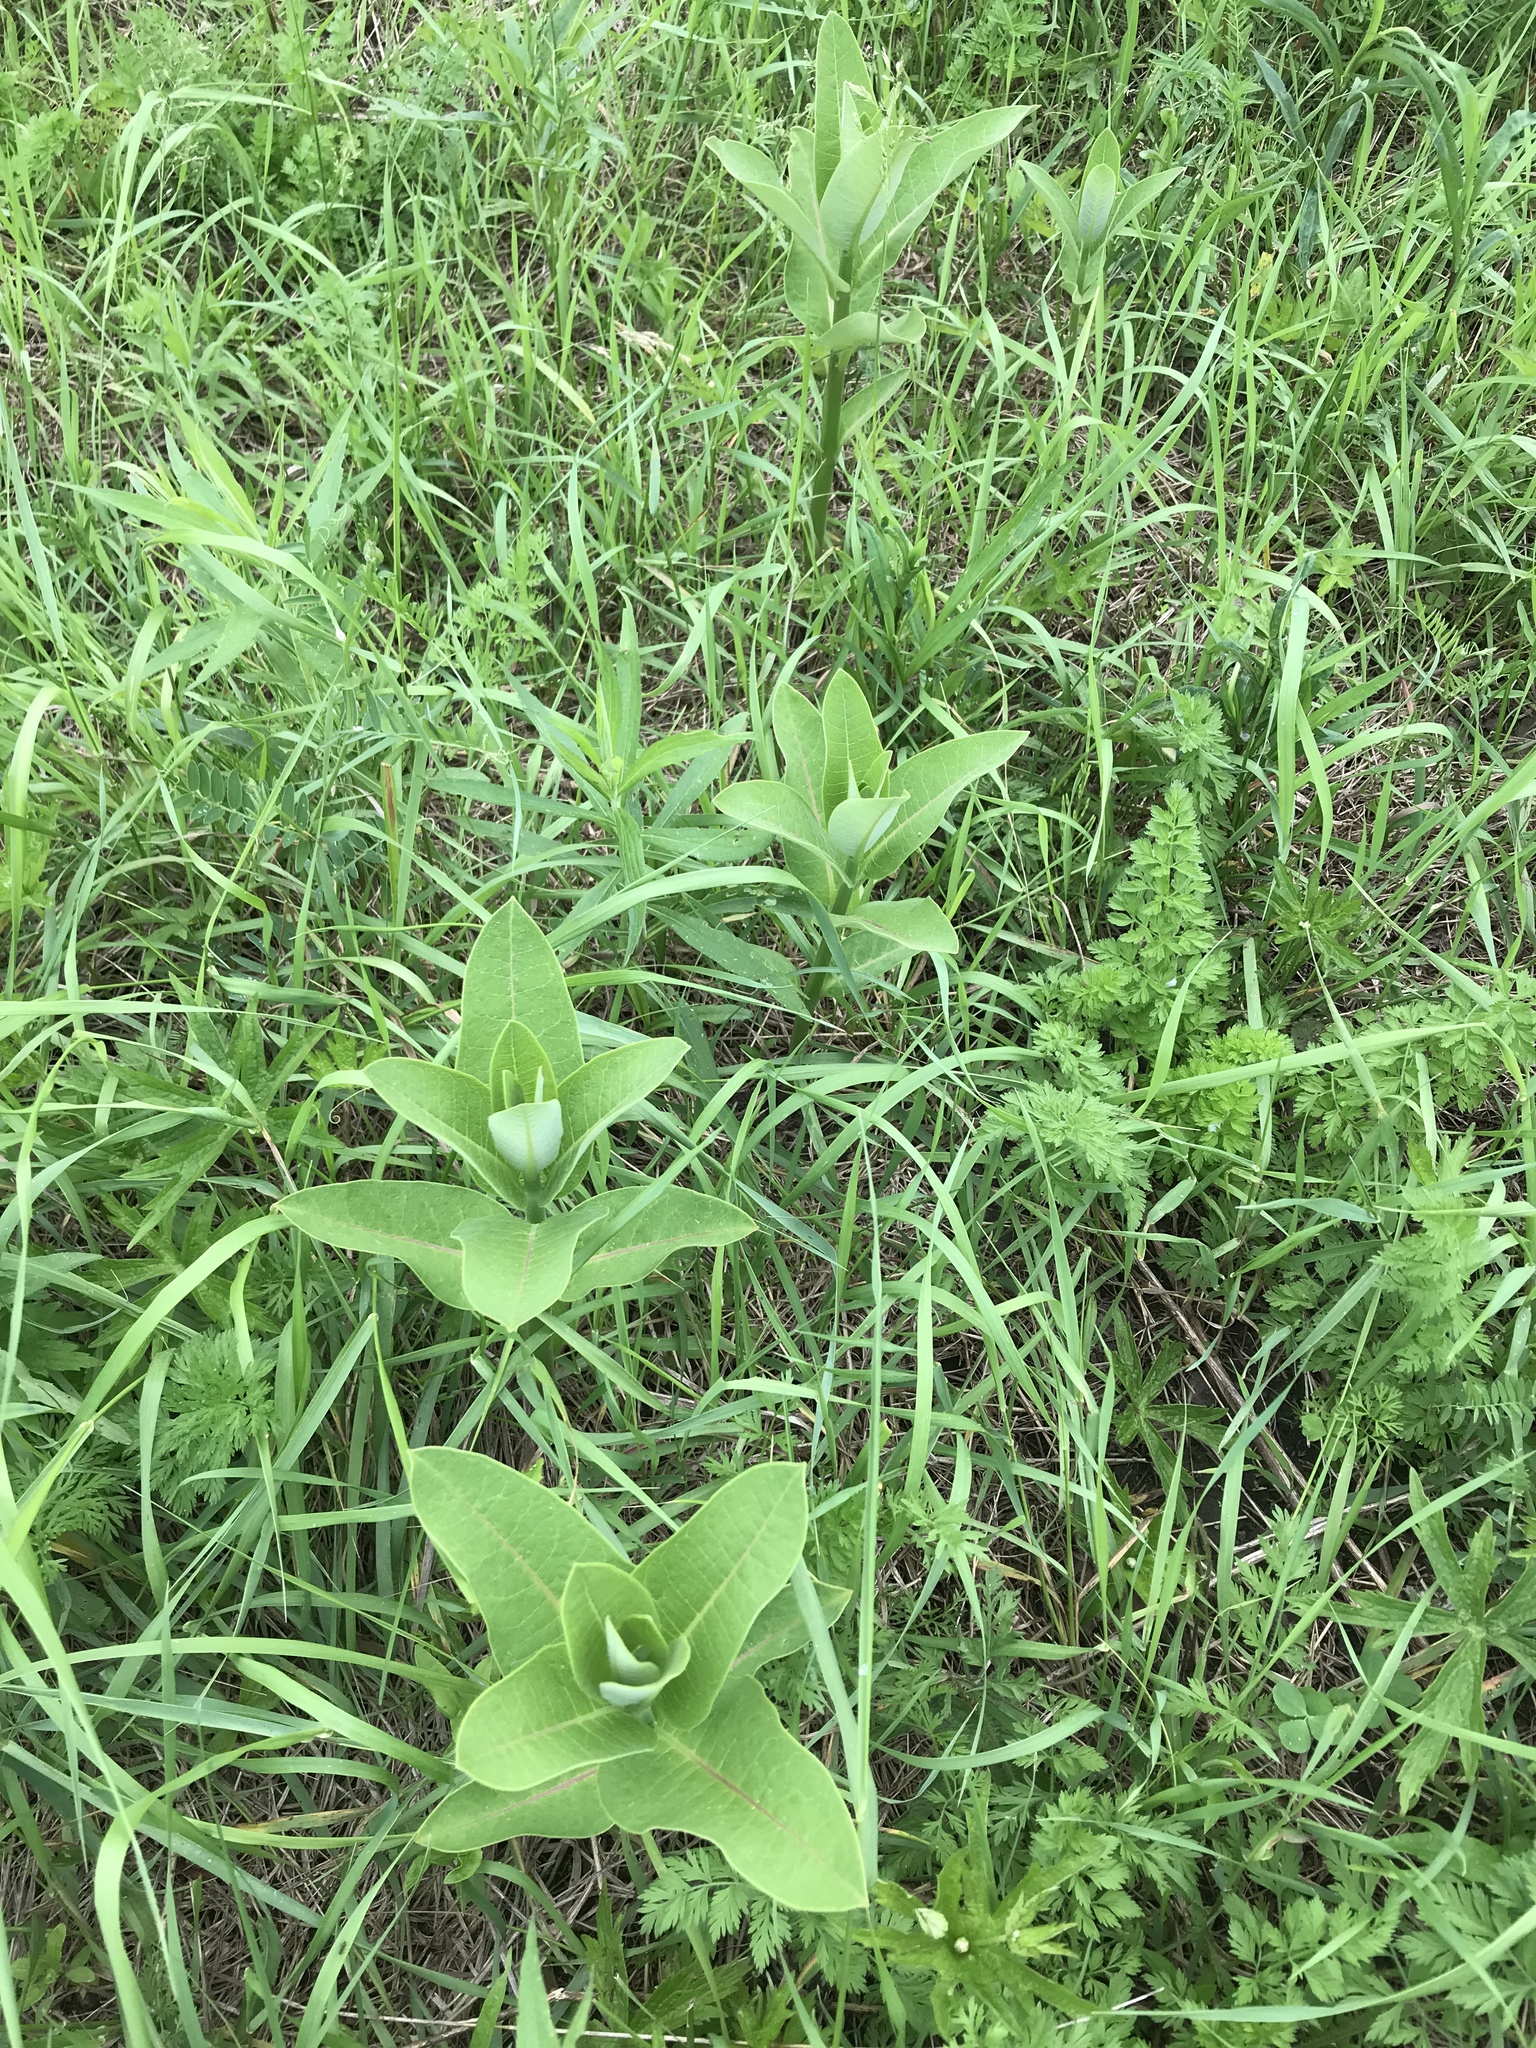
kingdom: Plantae
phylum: Tracheophyta
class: Magnoliopsida
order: Gentianales
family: Apocynaceae
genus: Asclepias
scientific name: Asclepias syriaca
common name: Common milkweed
